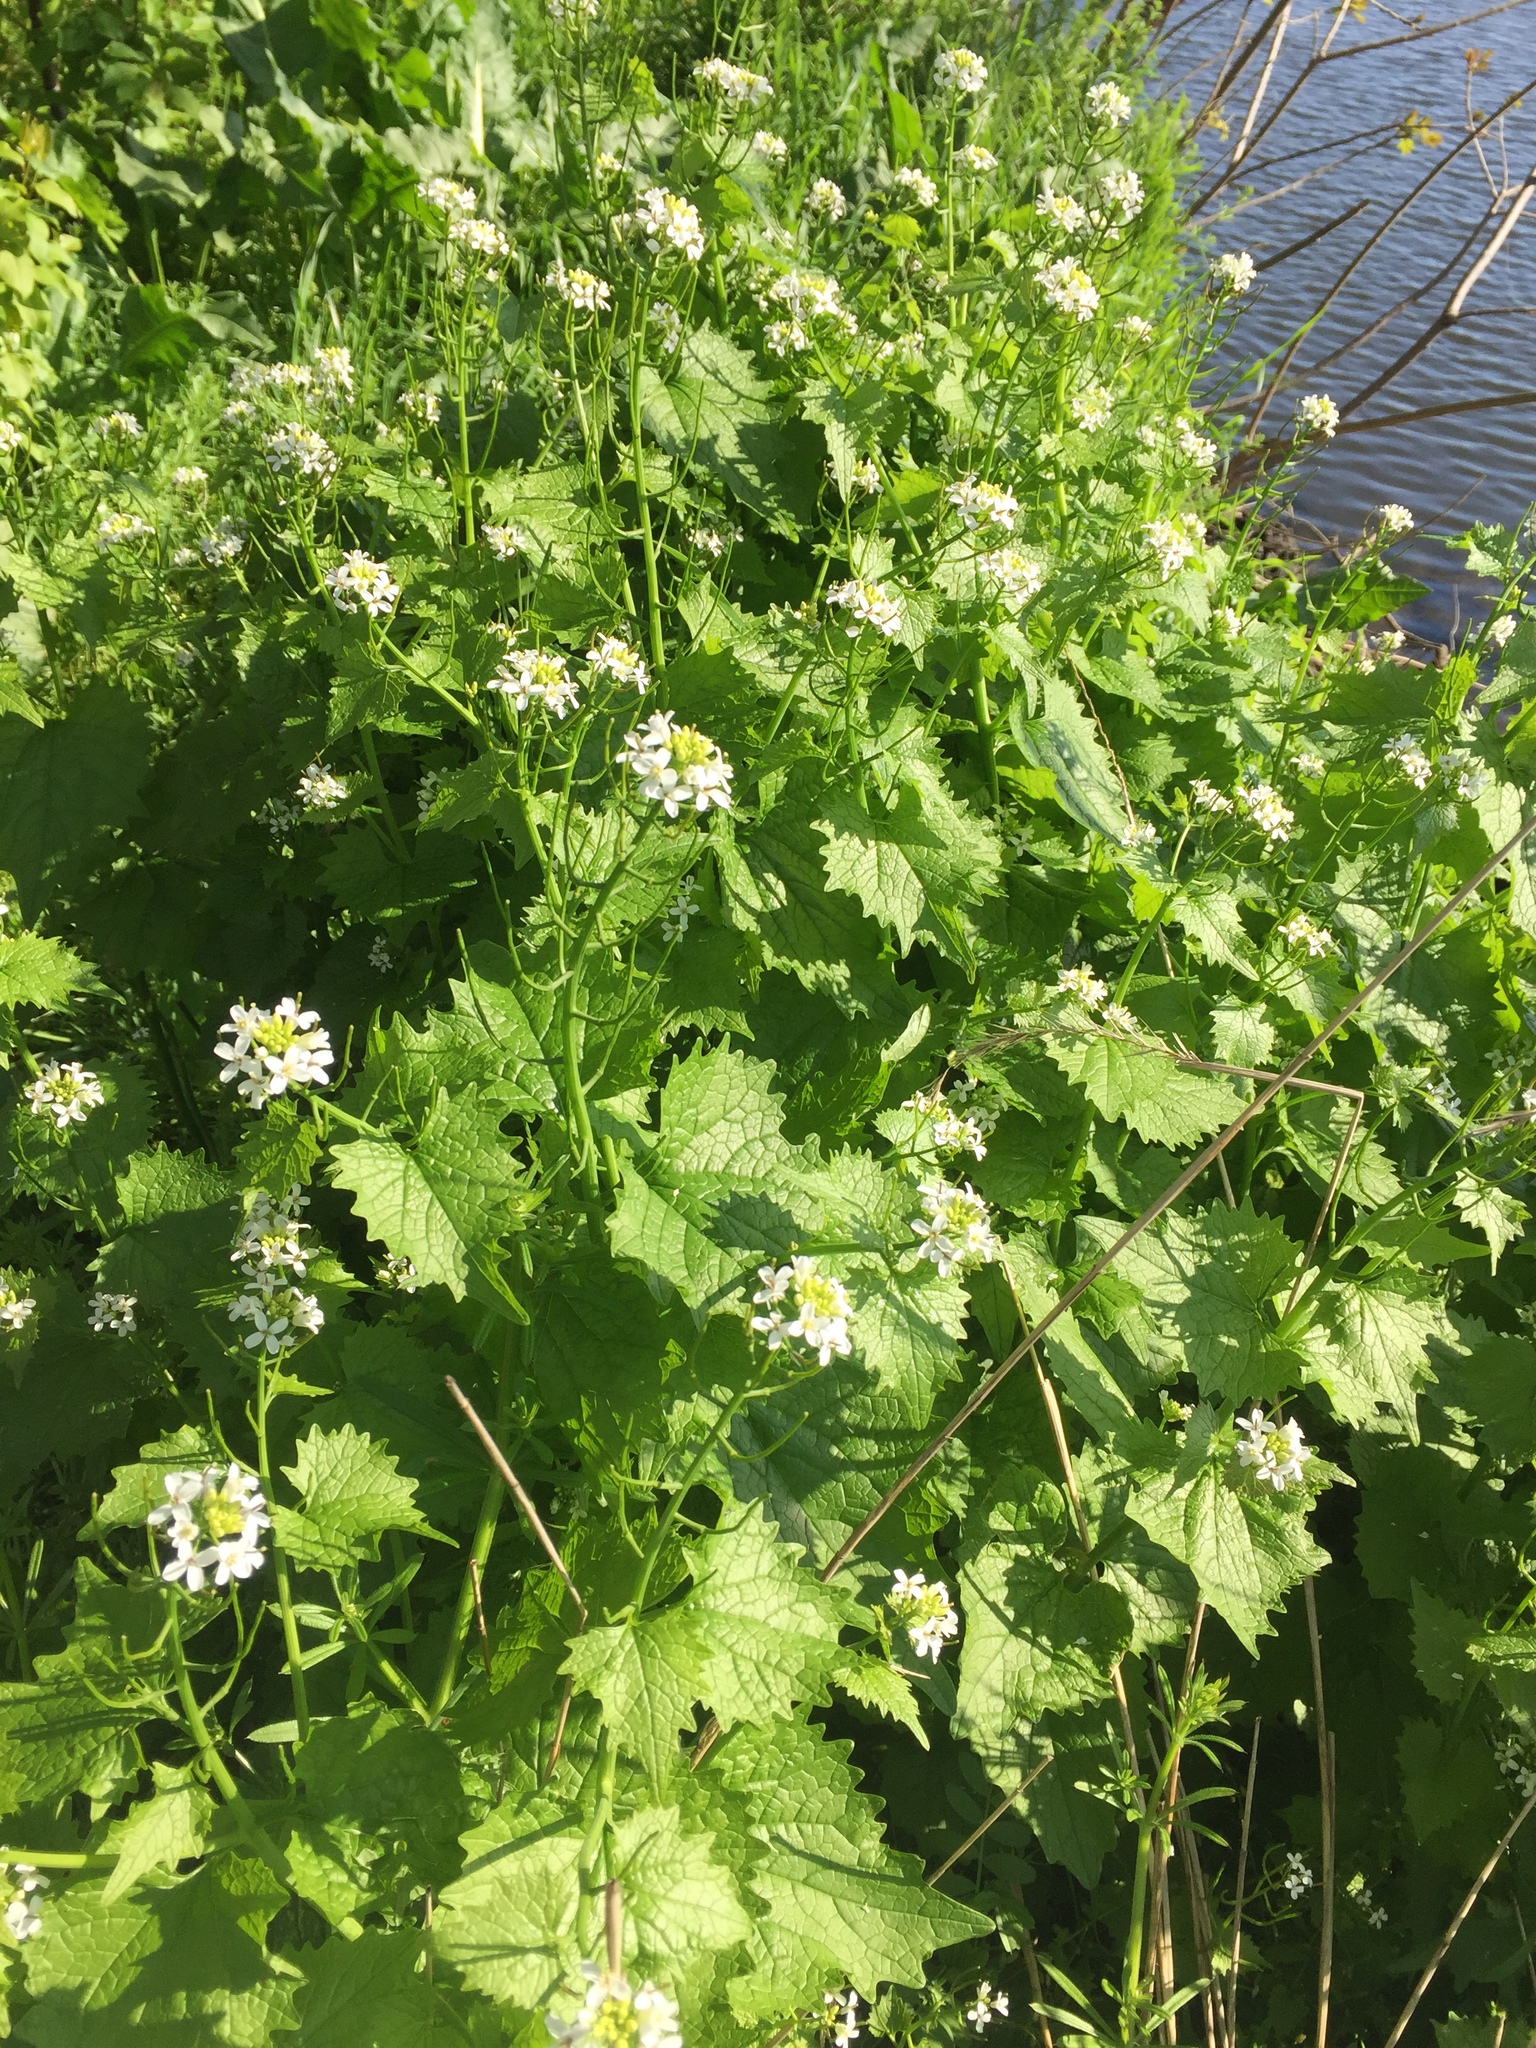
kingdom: Plantae
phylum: Tracheophyta
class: Magnoliopsida
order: Brassicales
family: Brassicaceae
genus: Alliaria
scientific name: Alliaria petiolata
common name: Garlic mustard
